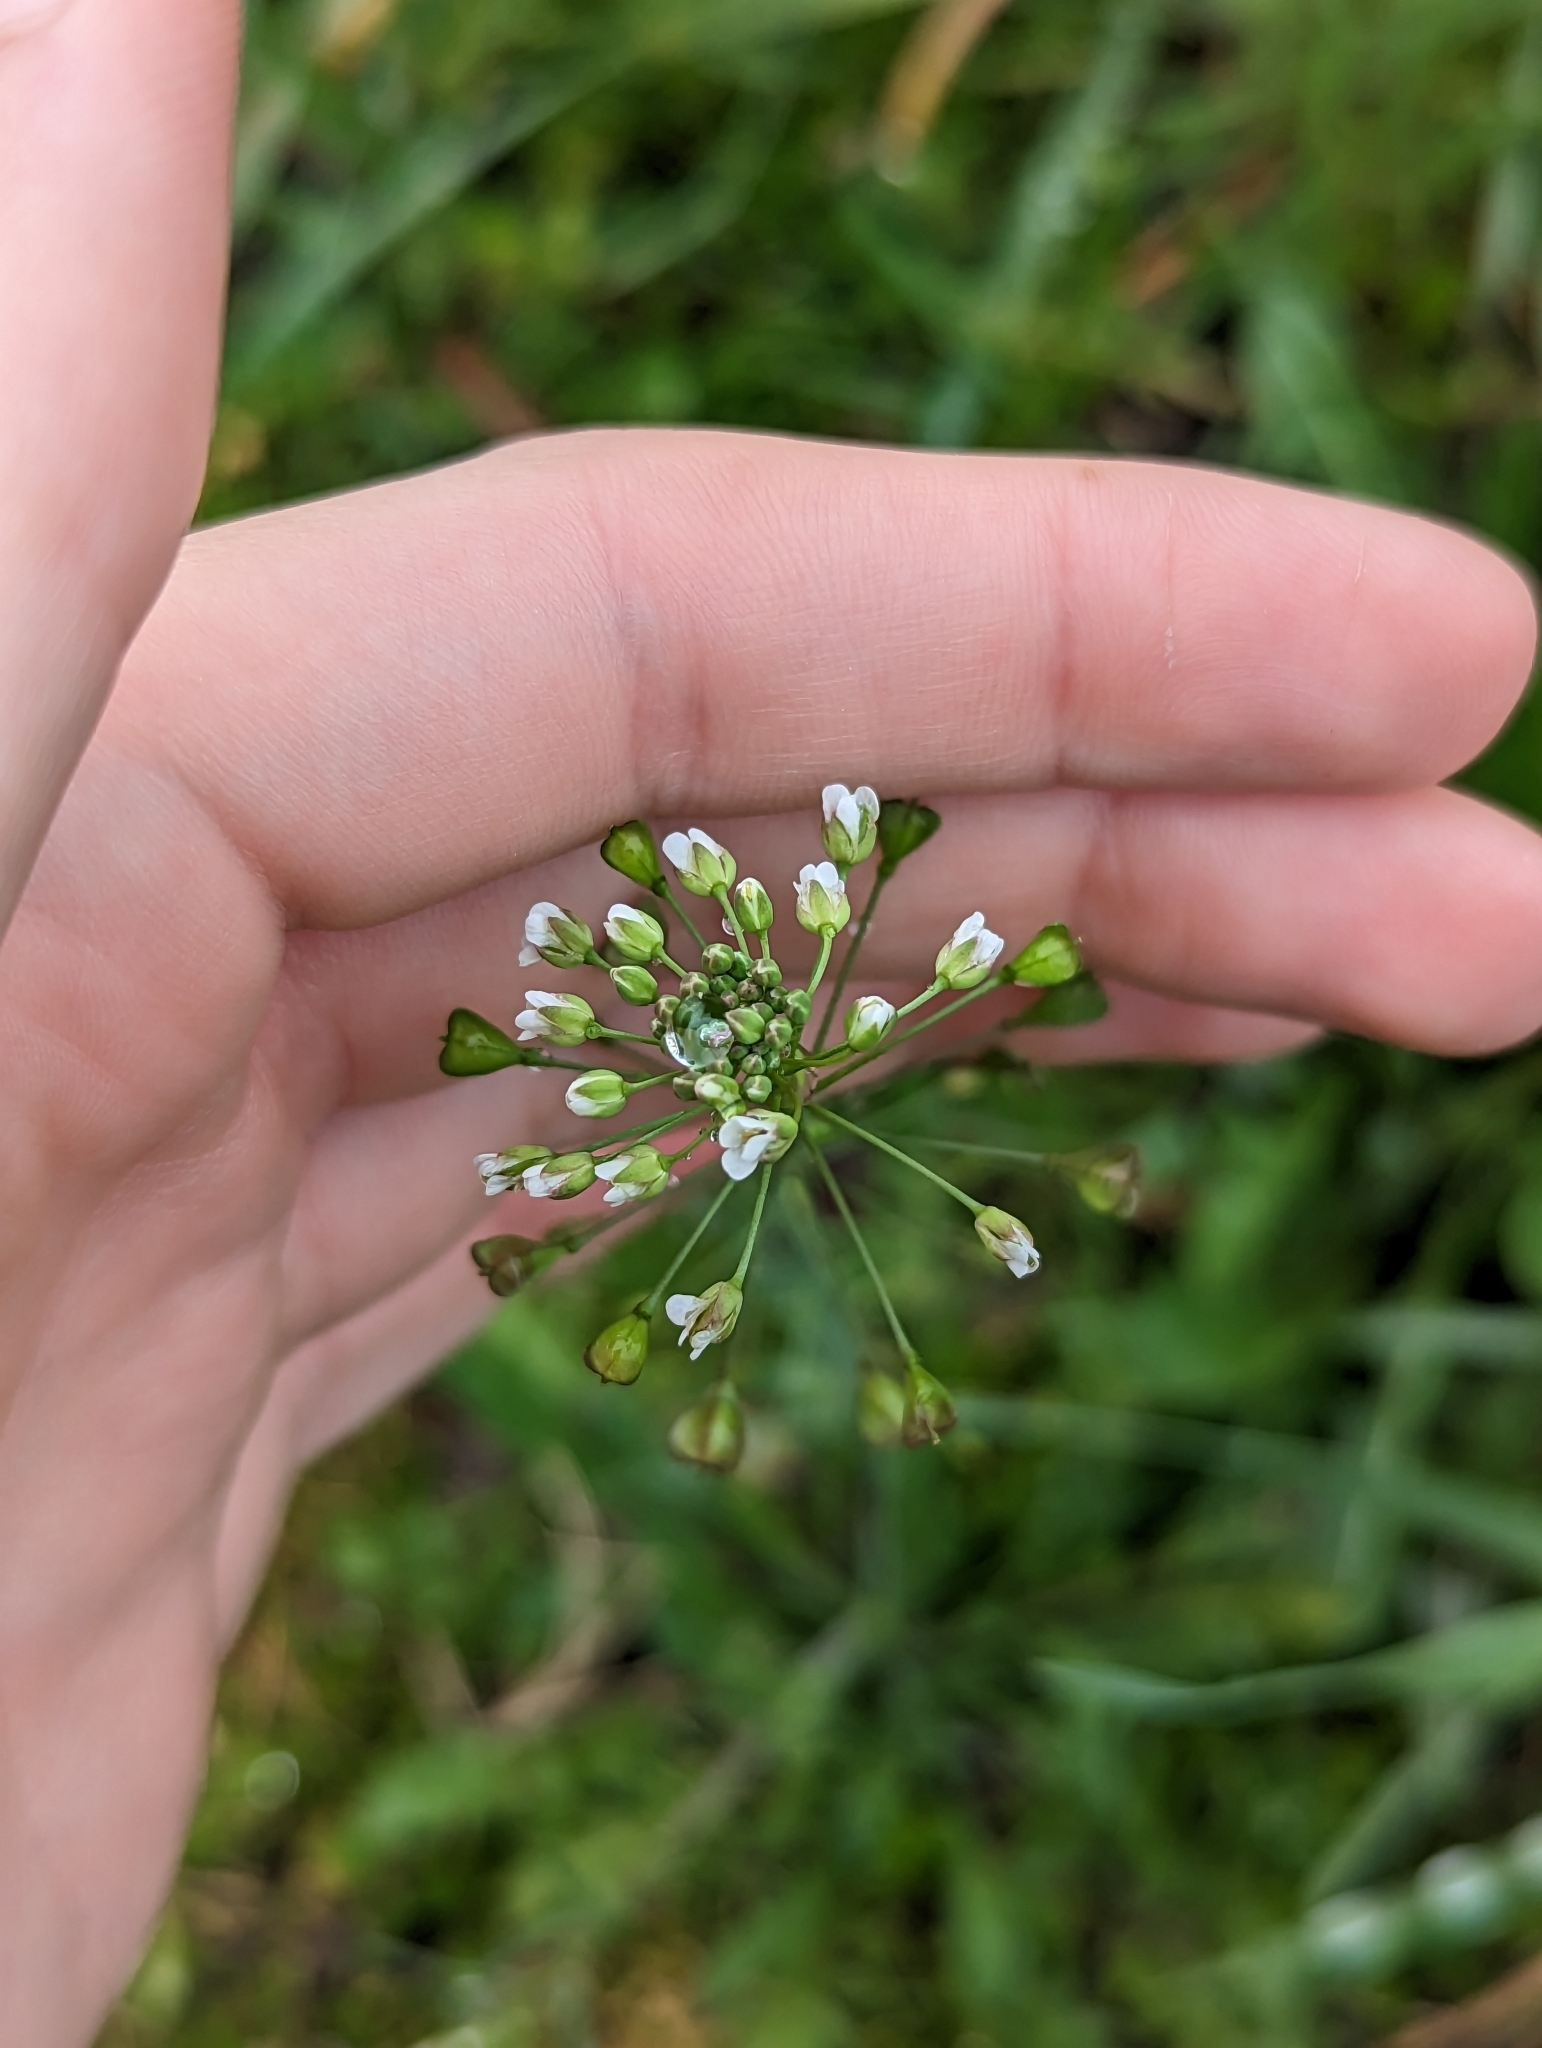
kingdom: Plantae
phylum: Tracheophyta
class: Magnoliopsida
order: Brassicales
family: Brassicaceae
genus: Capsella
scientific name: Capsella bursa-pastoris
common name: Shepherd's purse
